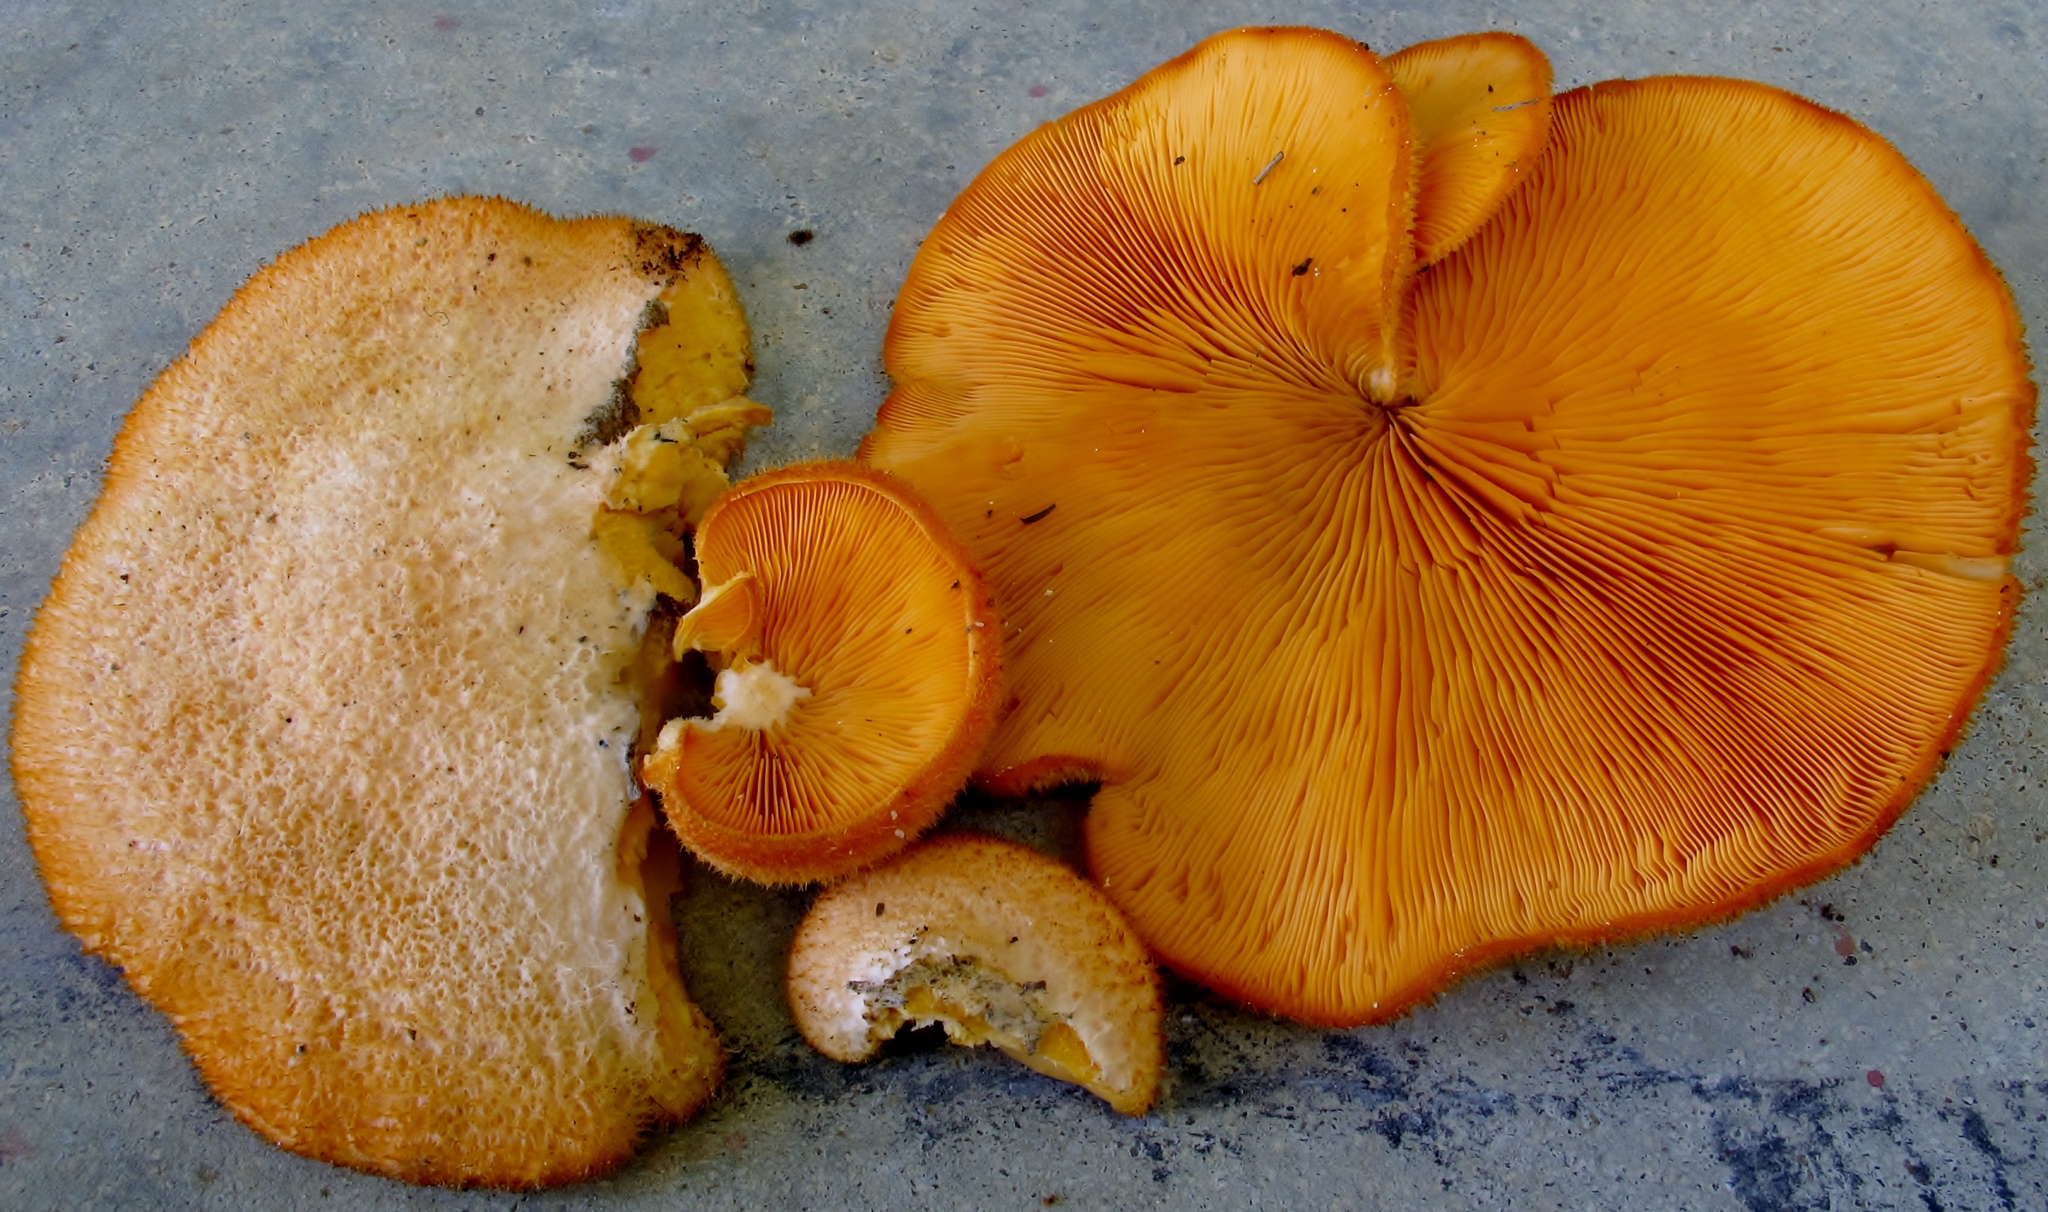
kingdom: Fungi
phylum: Basidiomycota
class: Agaricomycetes
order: Agaricales
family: Phyllotopsidaceae
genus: Phyllotopsis
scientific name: Phyllotopsis nidulans
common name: Orange mock oyster
